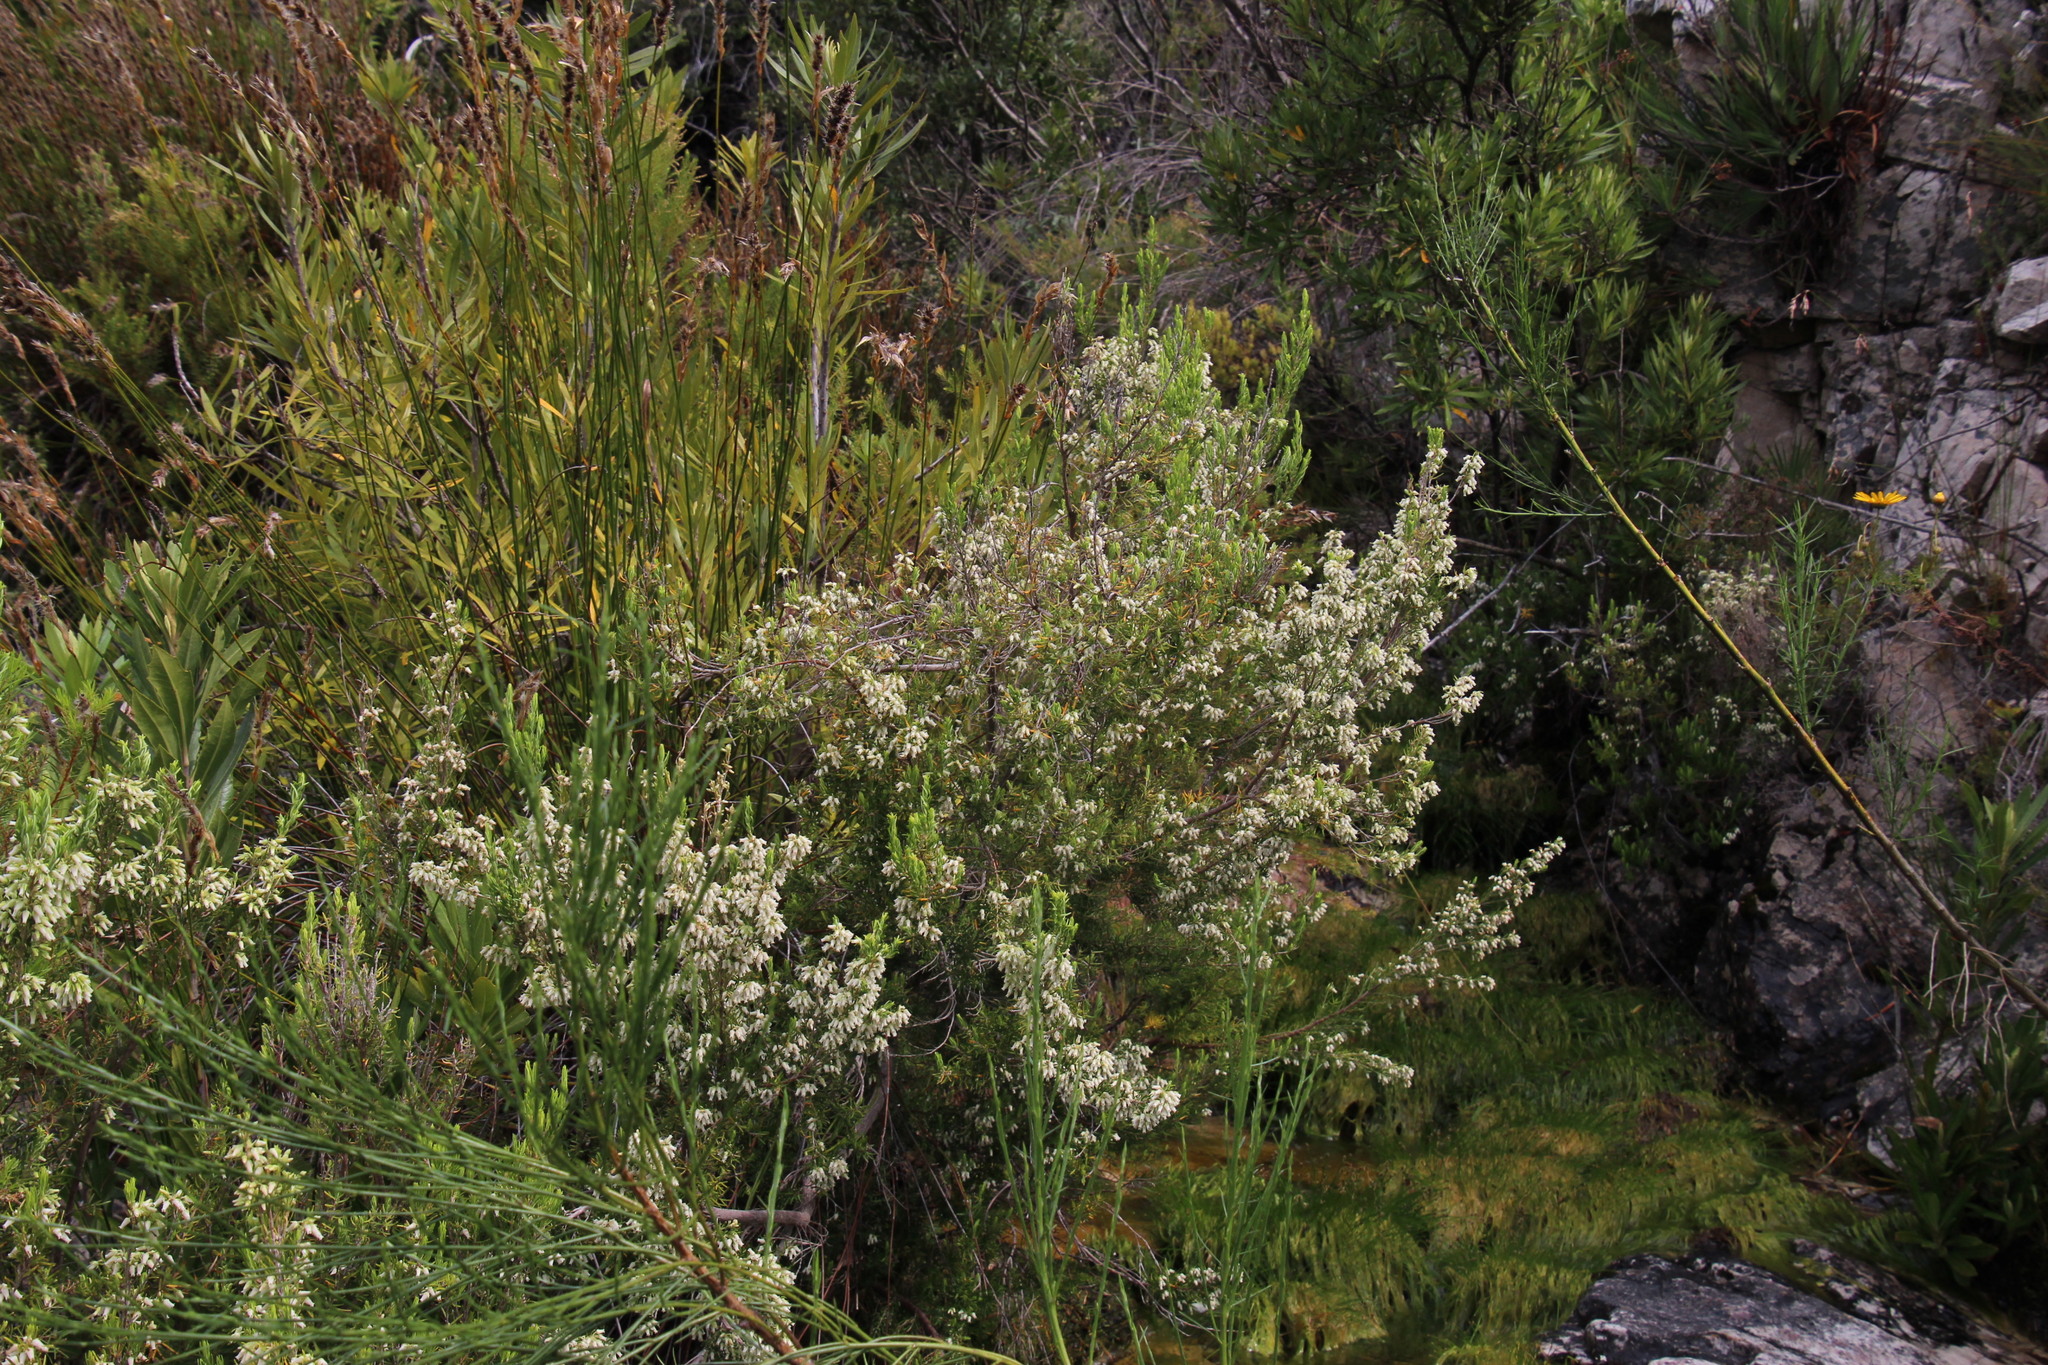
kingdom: Plantae
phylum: Tracheophyta
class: Magnoliopsida
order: Ericales
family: Ericaceae
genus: Erica
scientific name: Erica caffra
